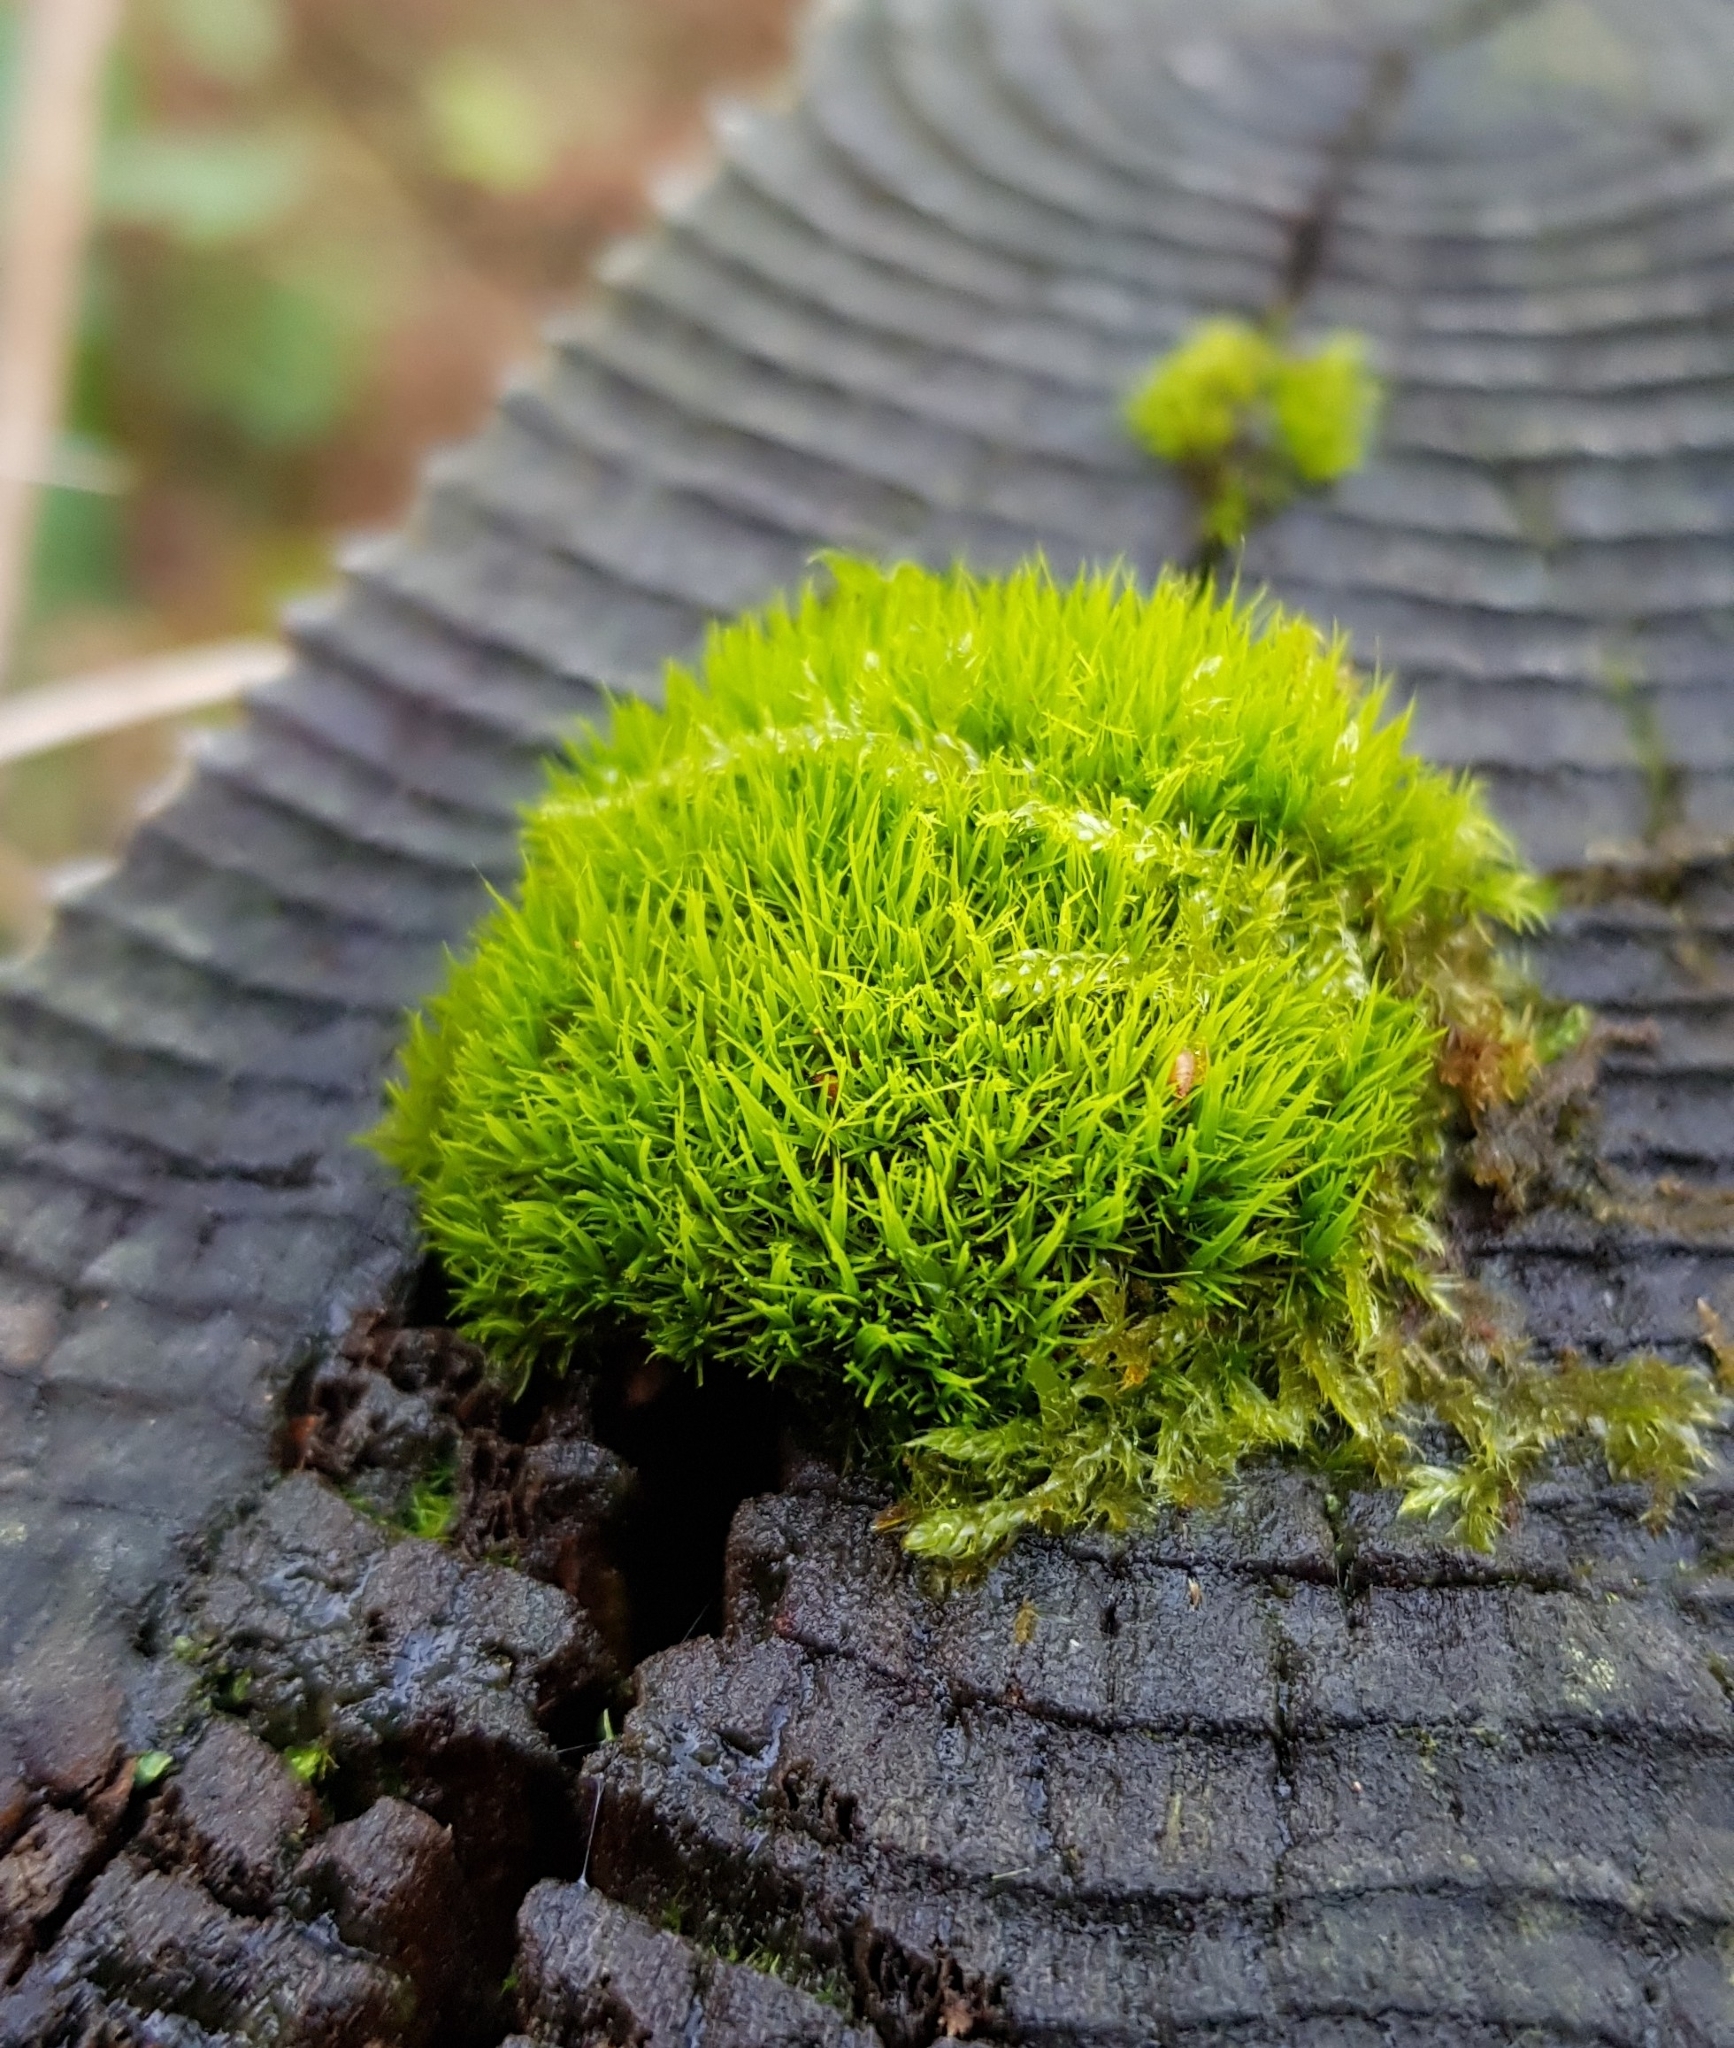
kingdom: Plantae
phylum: Bryophyta
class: Bryopsida
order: Dicranales
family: Dicranaceae
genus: Orthodicranum
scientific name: Orthodicranum tauricum
